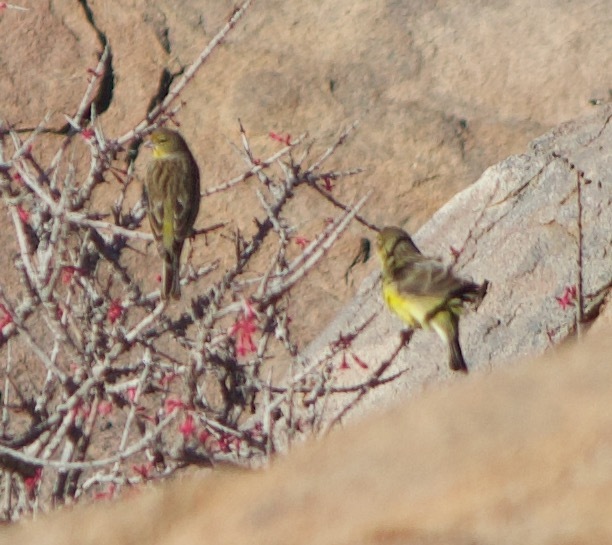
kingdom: Animalia
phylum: Chordata
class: Aves
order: Passeriformes
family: Thraupidae
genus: Sicalis
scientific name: Sicalis luteola
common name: Grassland yellow-finch
